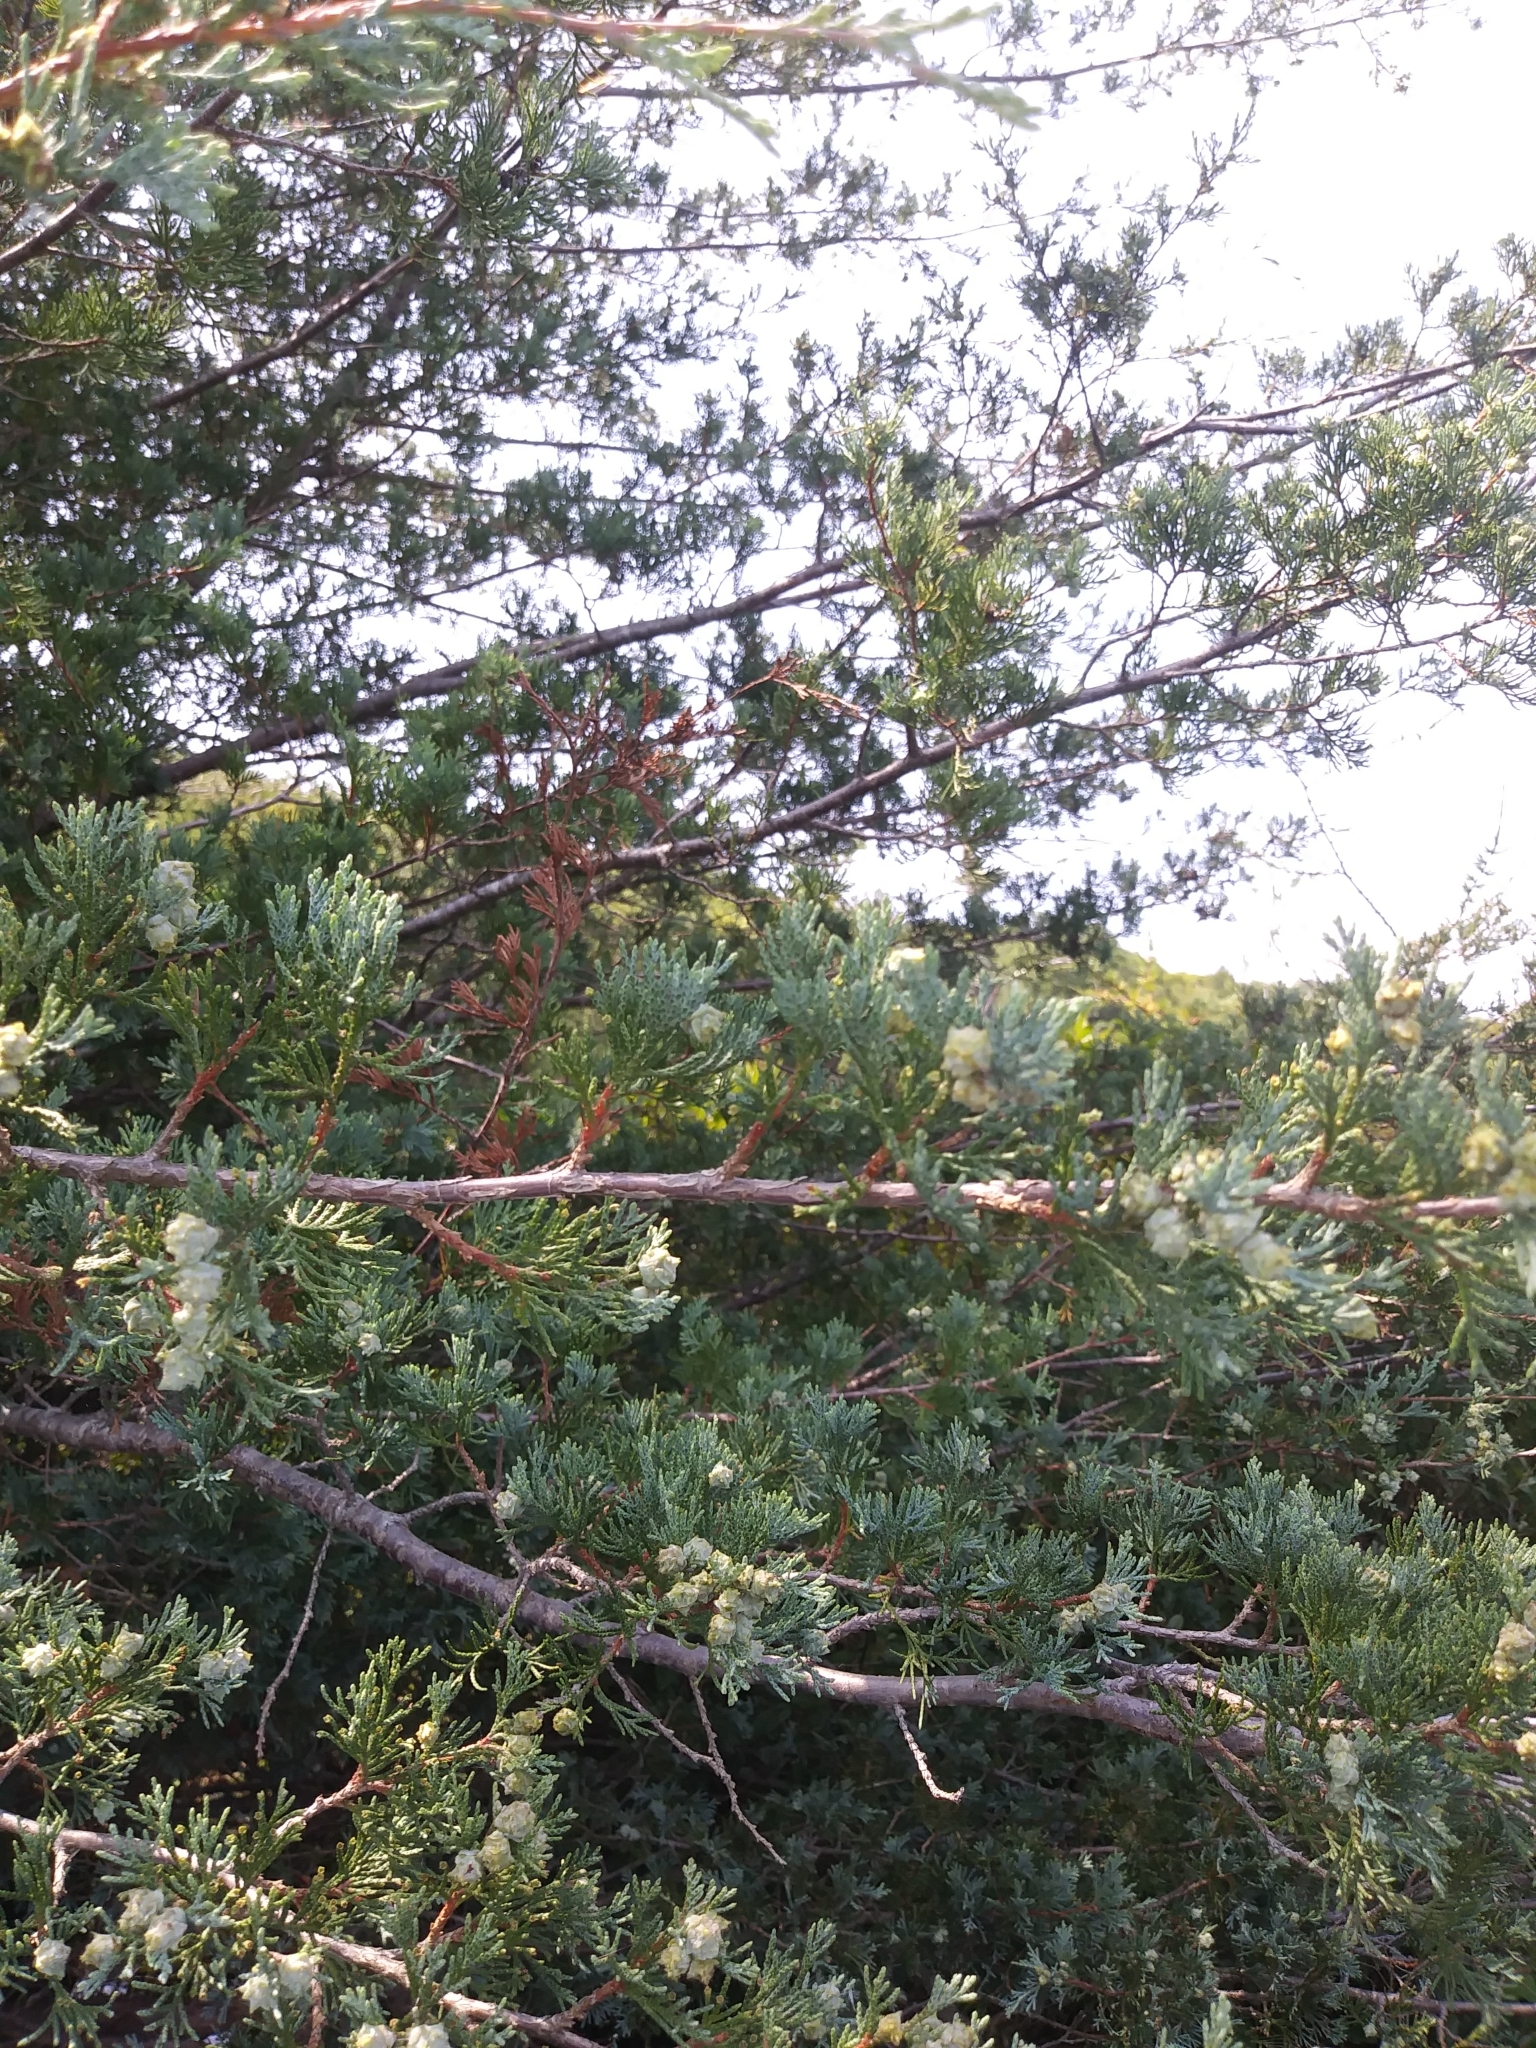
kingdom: Plantae
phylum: Tracheophyta
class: Pinopsida
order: Pinales
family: Cupressaceae
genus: Chamaecyparis
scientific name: Chamaecyparis thyoides
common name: Atlantic white cedar
